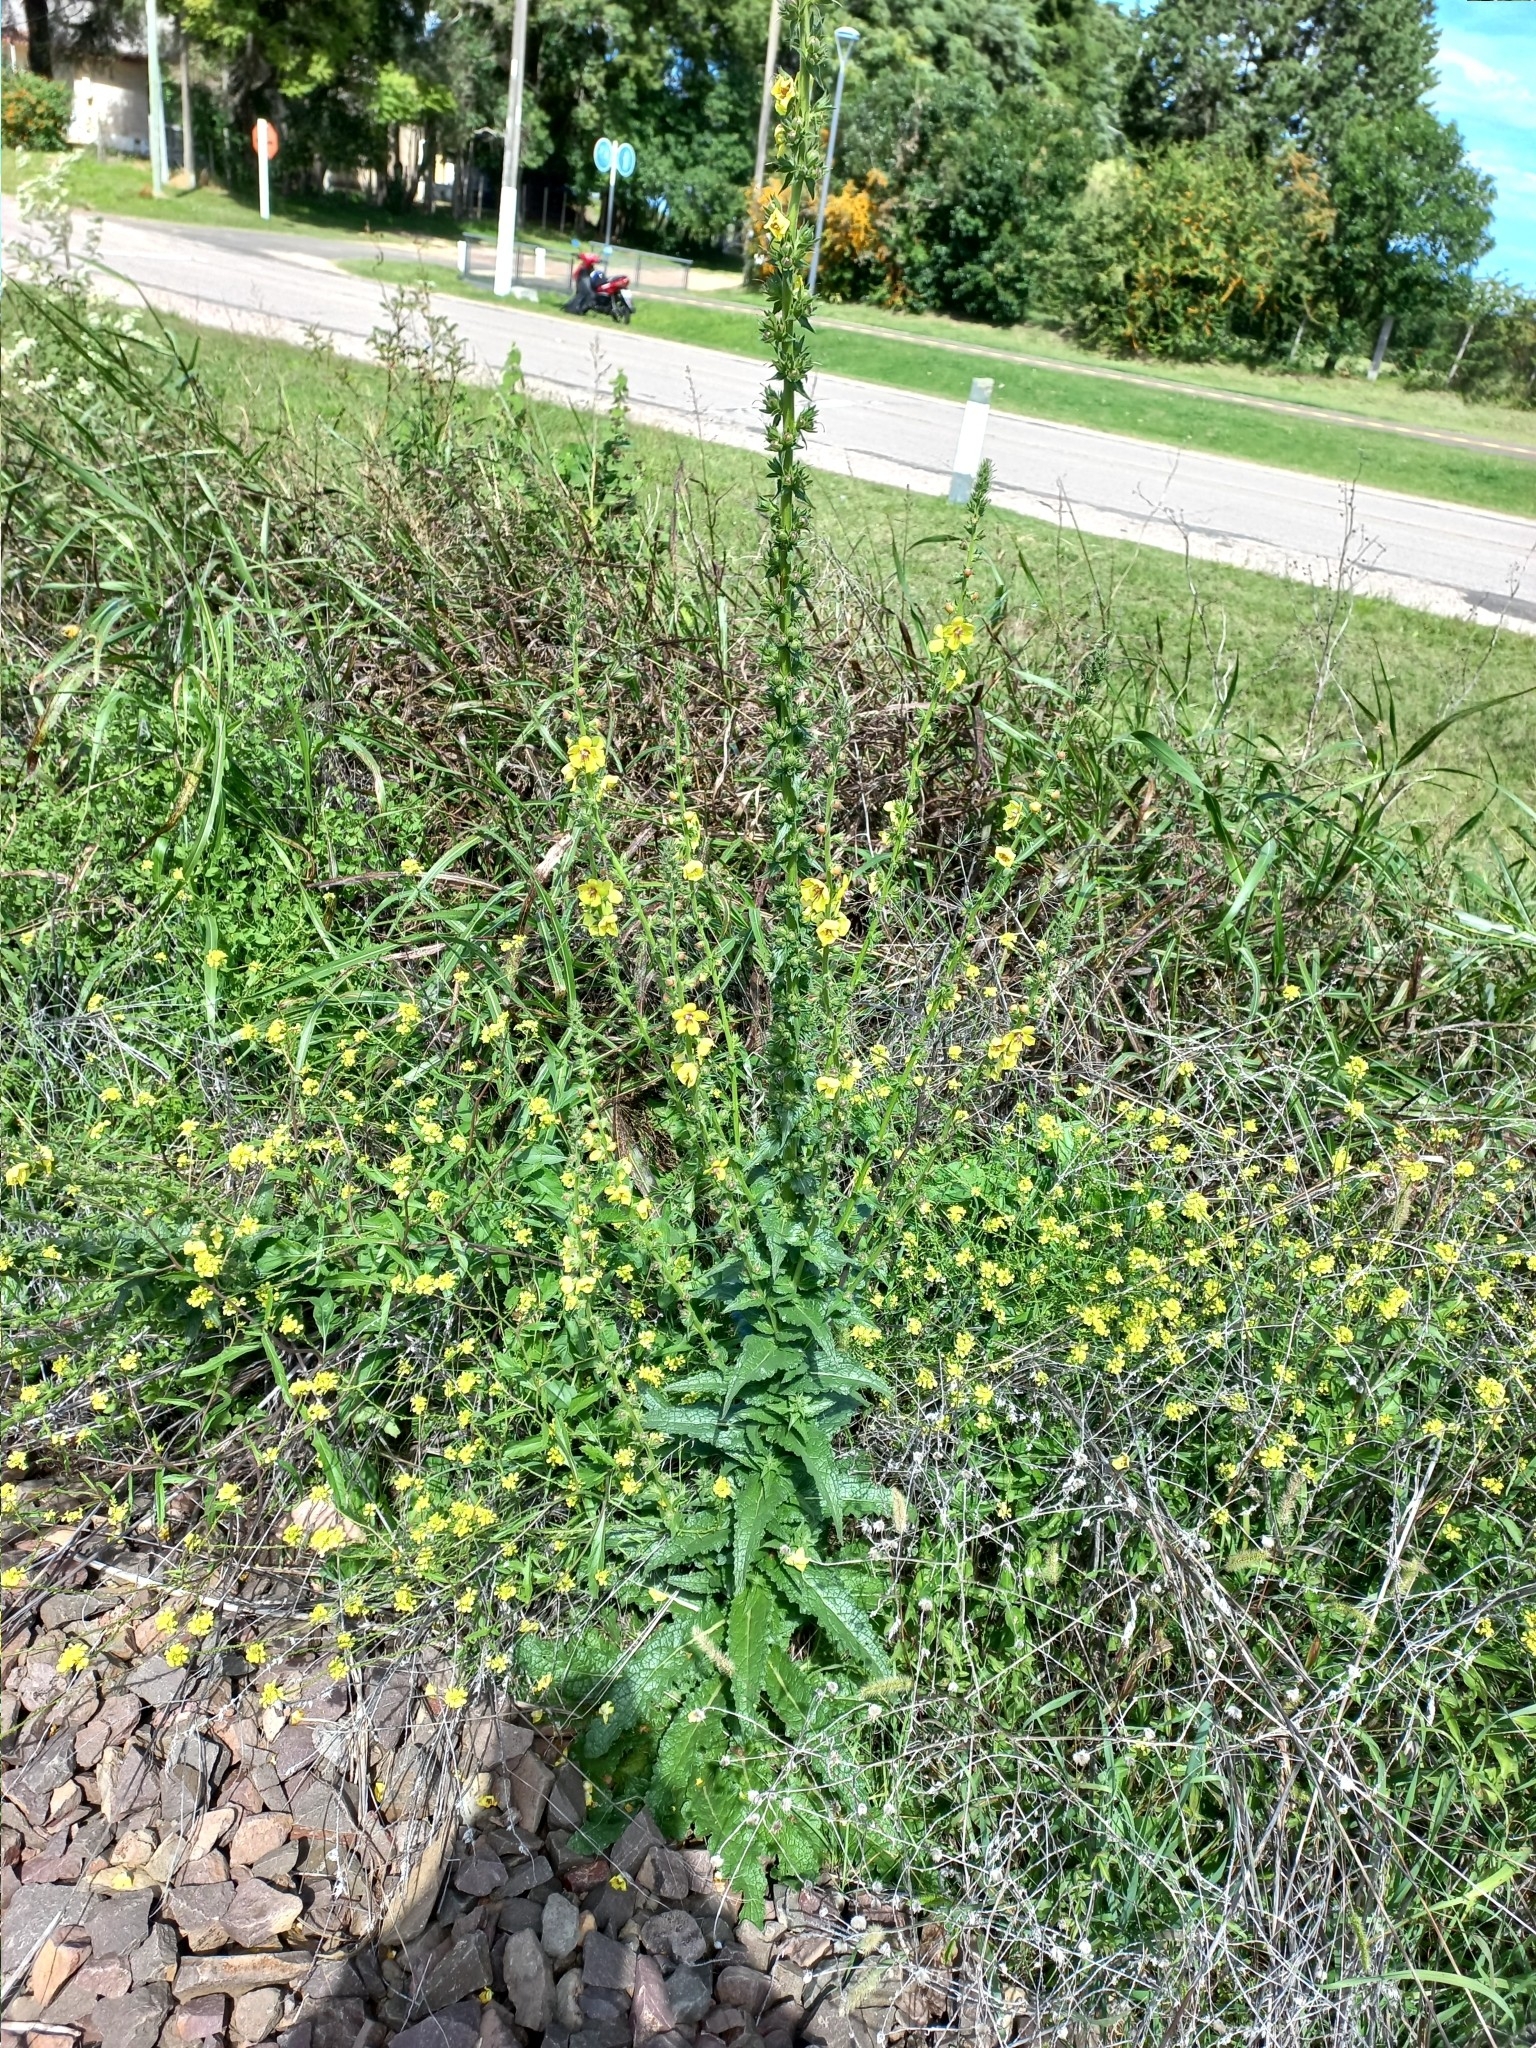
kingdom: Plantae
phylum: Tracheophyta
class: Magnoliopsida
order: Lamiales
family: Scrophulariaceae
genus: Verbascum
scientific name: Verbascum virgatum
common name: Twiggy mullein
